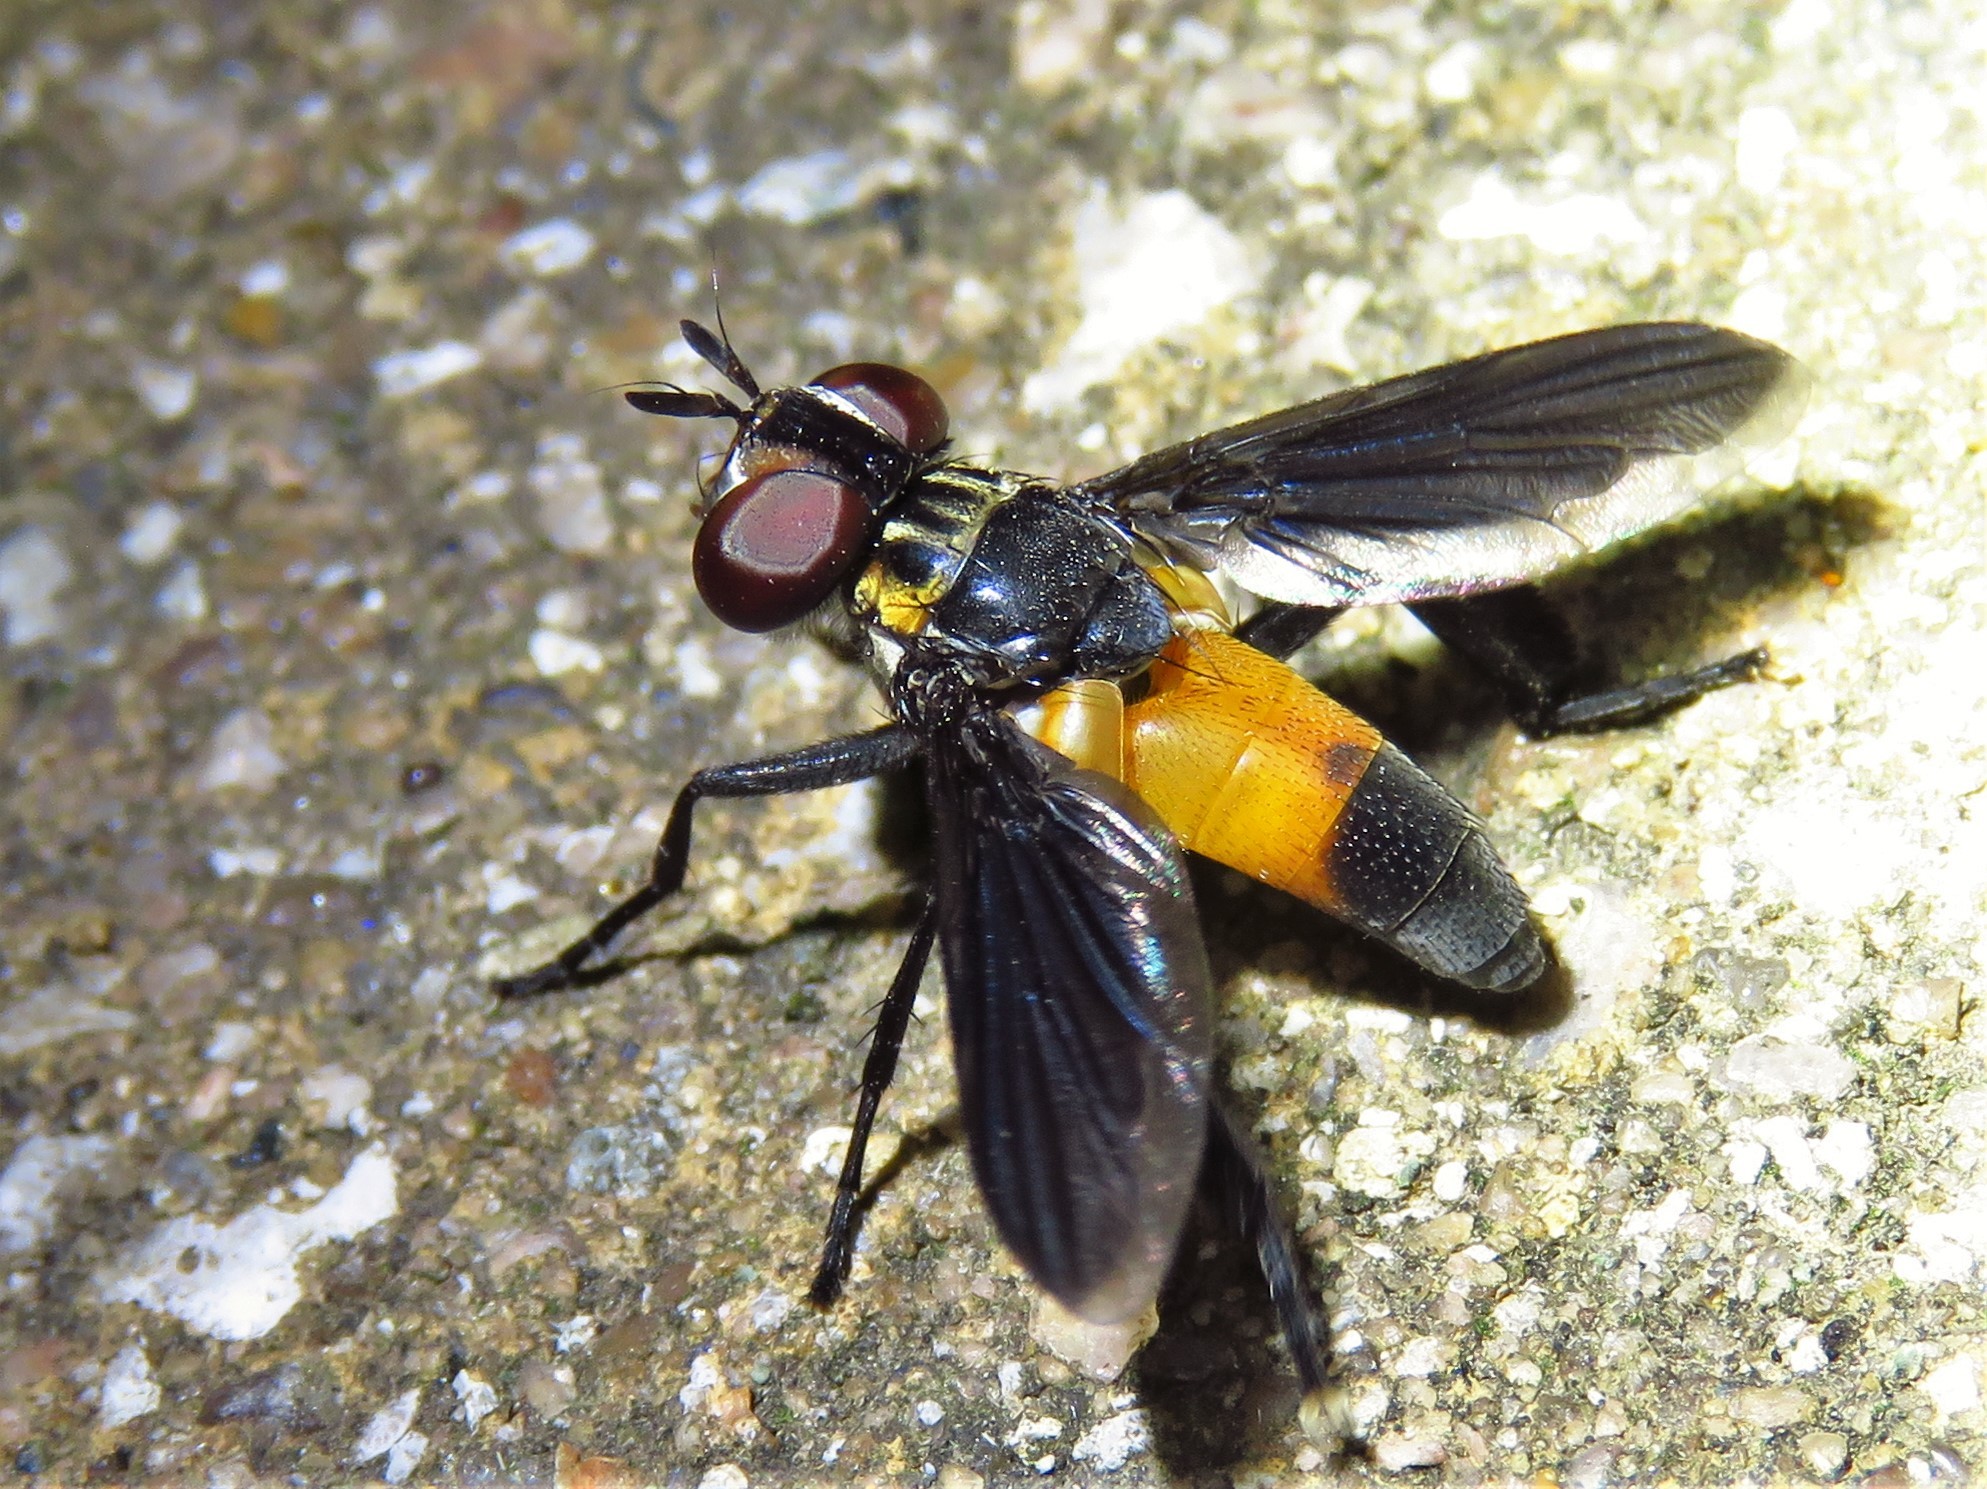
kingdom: Animalia
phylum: Arthropoda
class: Insecta
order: Diptera
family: Tachinidae
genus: Trichopoda
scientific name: Trichopoda pennipes
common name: Tachinid fly
